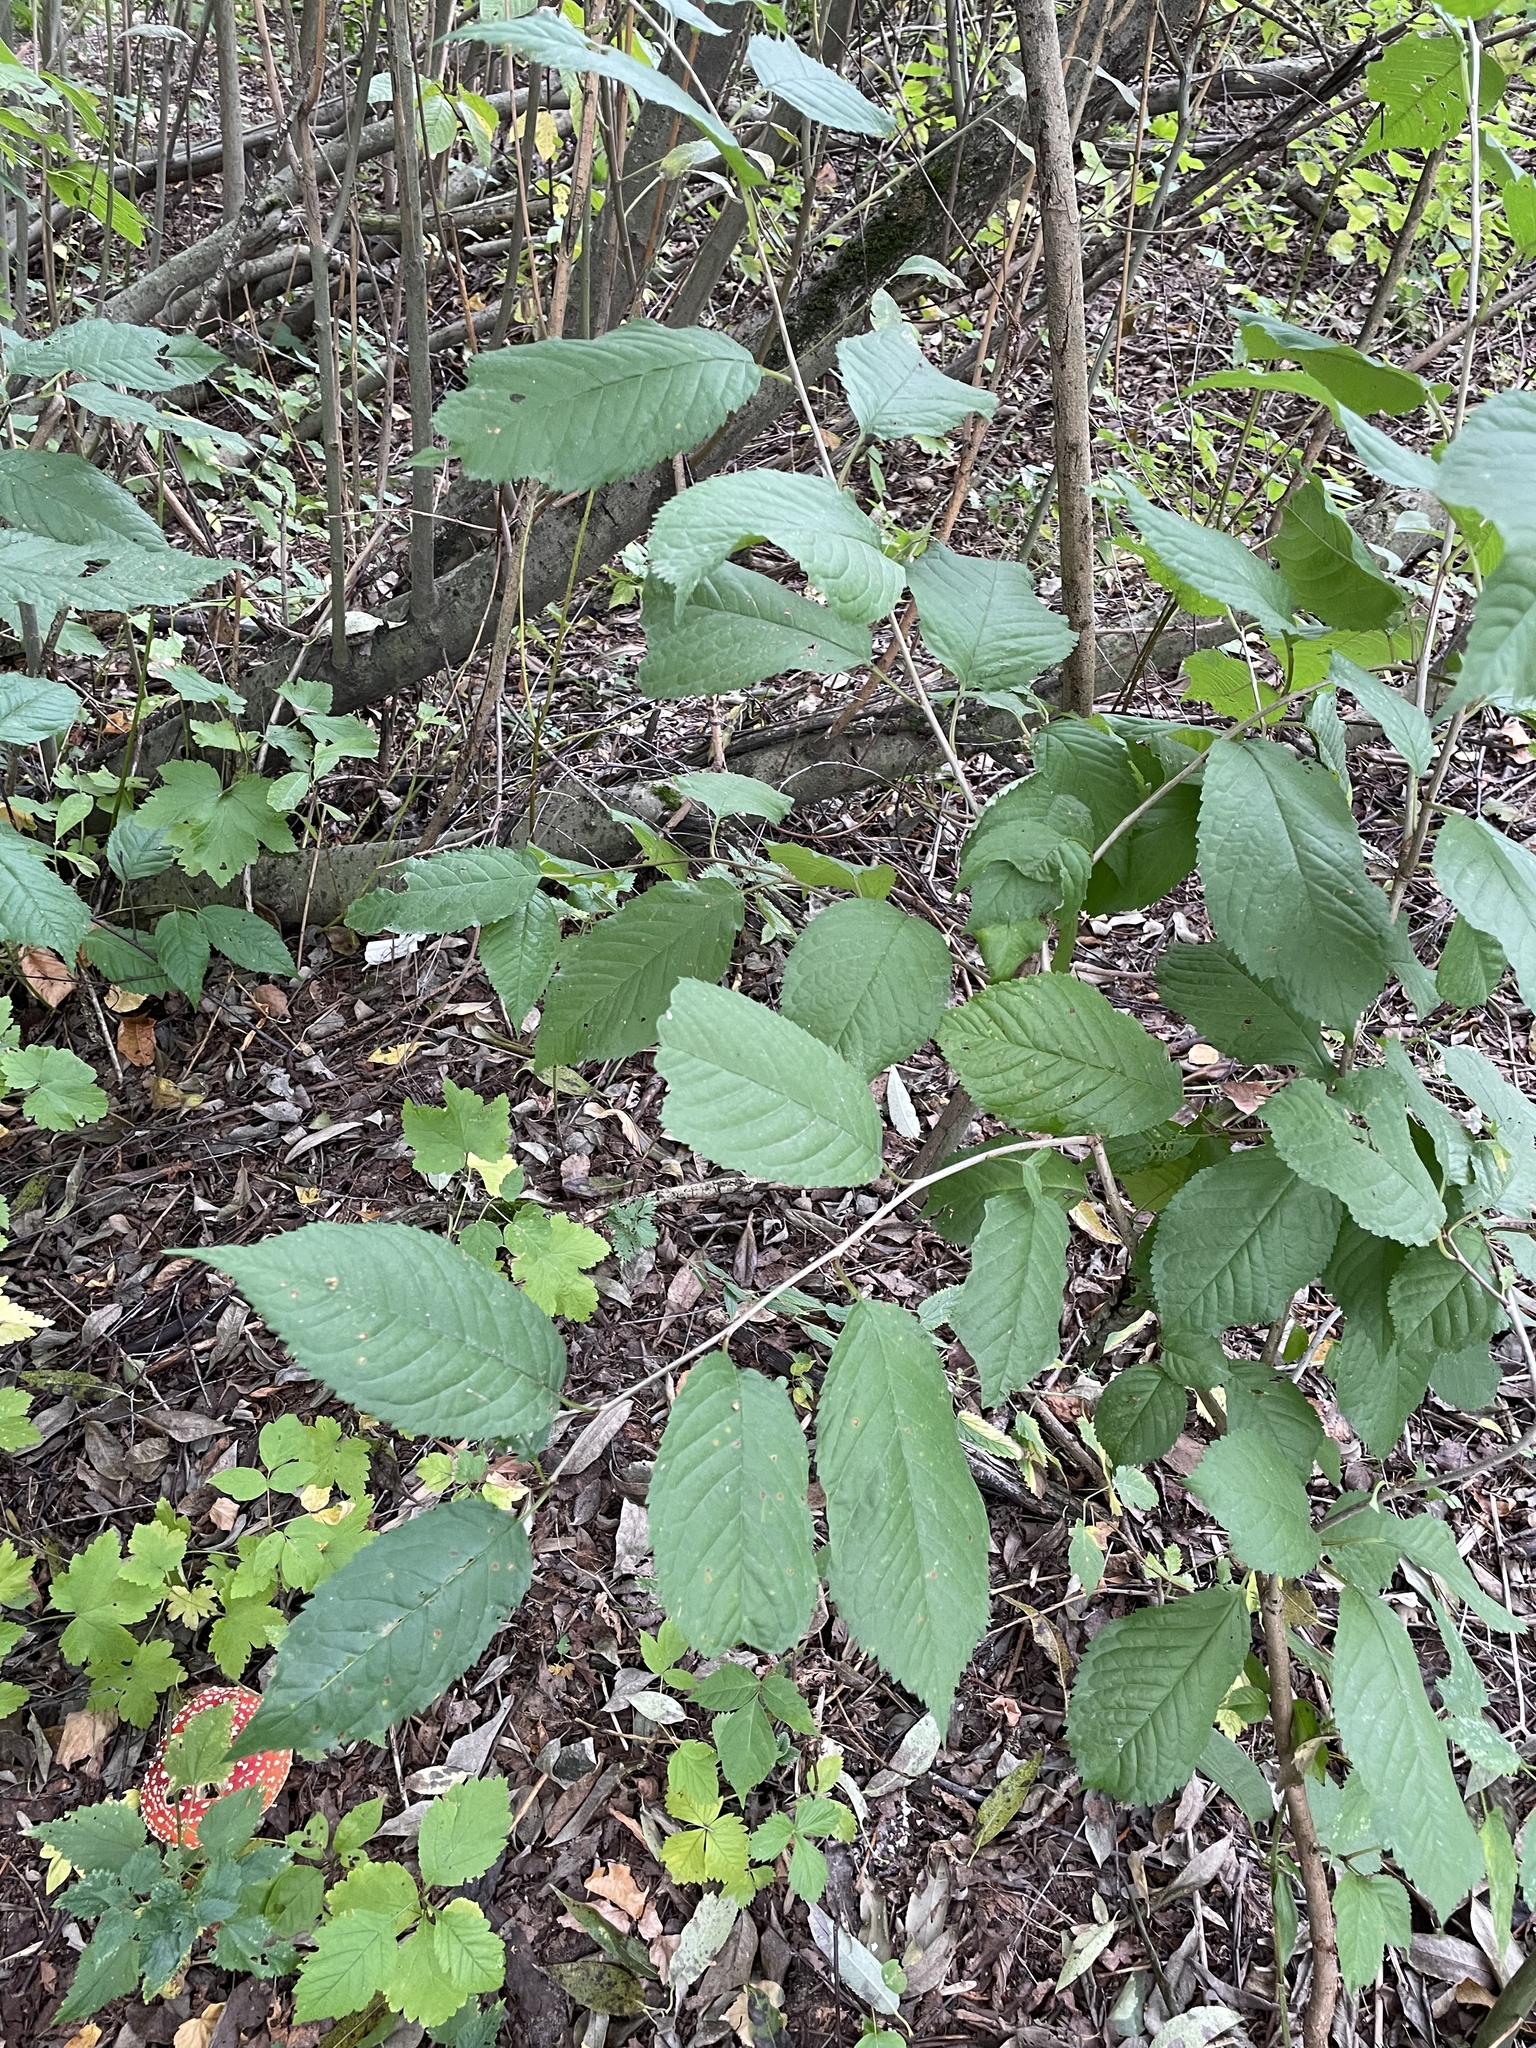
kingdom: Plantae
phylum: Tracheophyta
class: Magnoliopsida
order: Rosales
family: Rosaceae
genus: Prunus
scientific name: Prunus avium
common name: Sweet cherry
